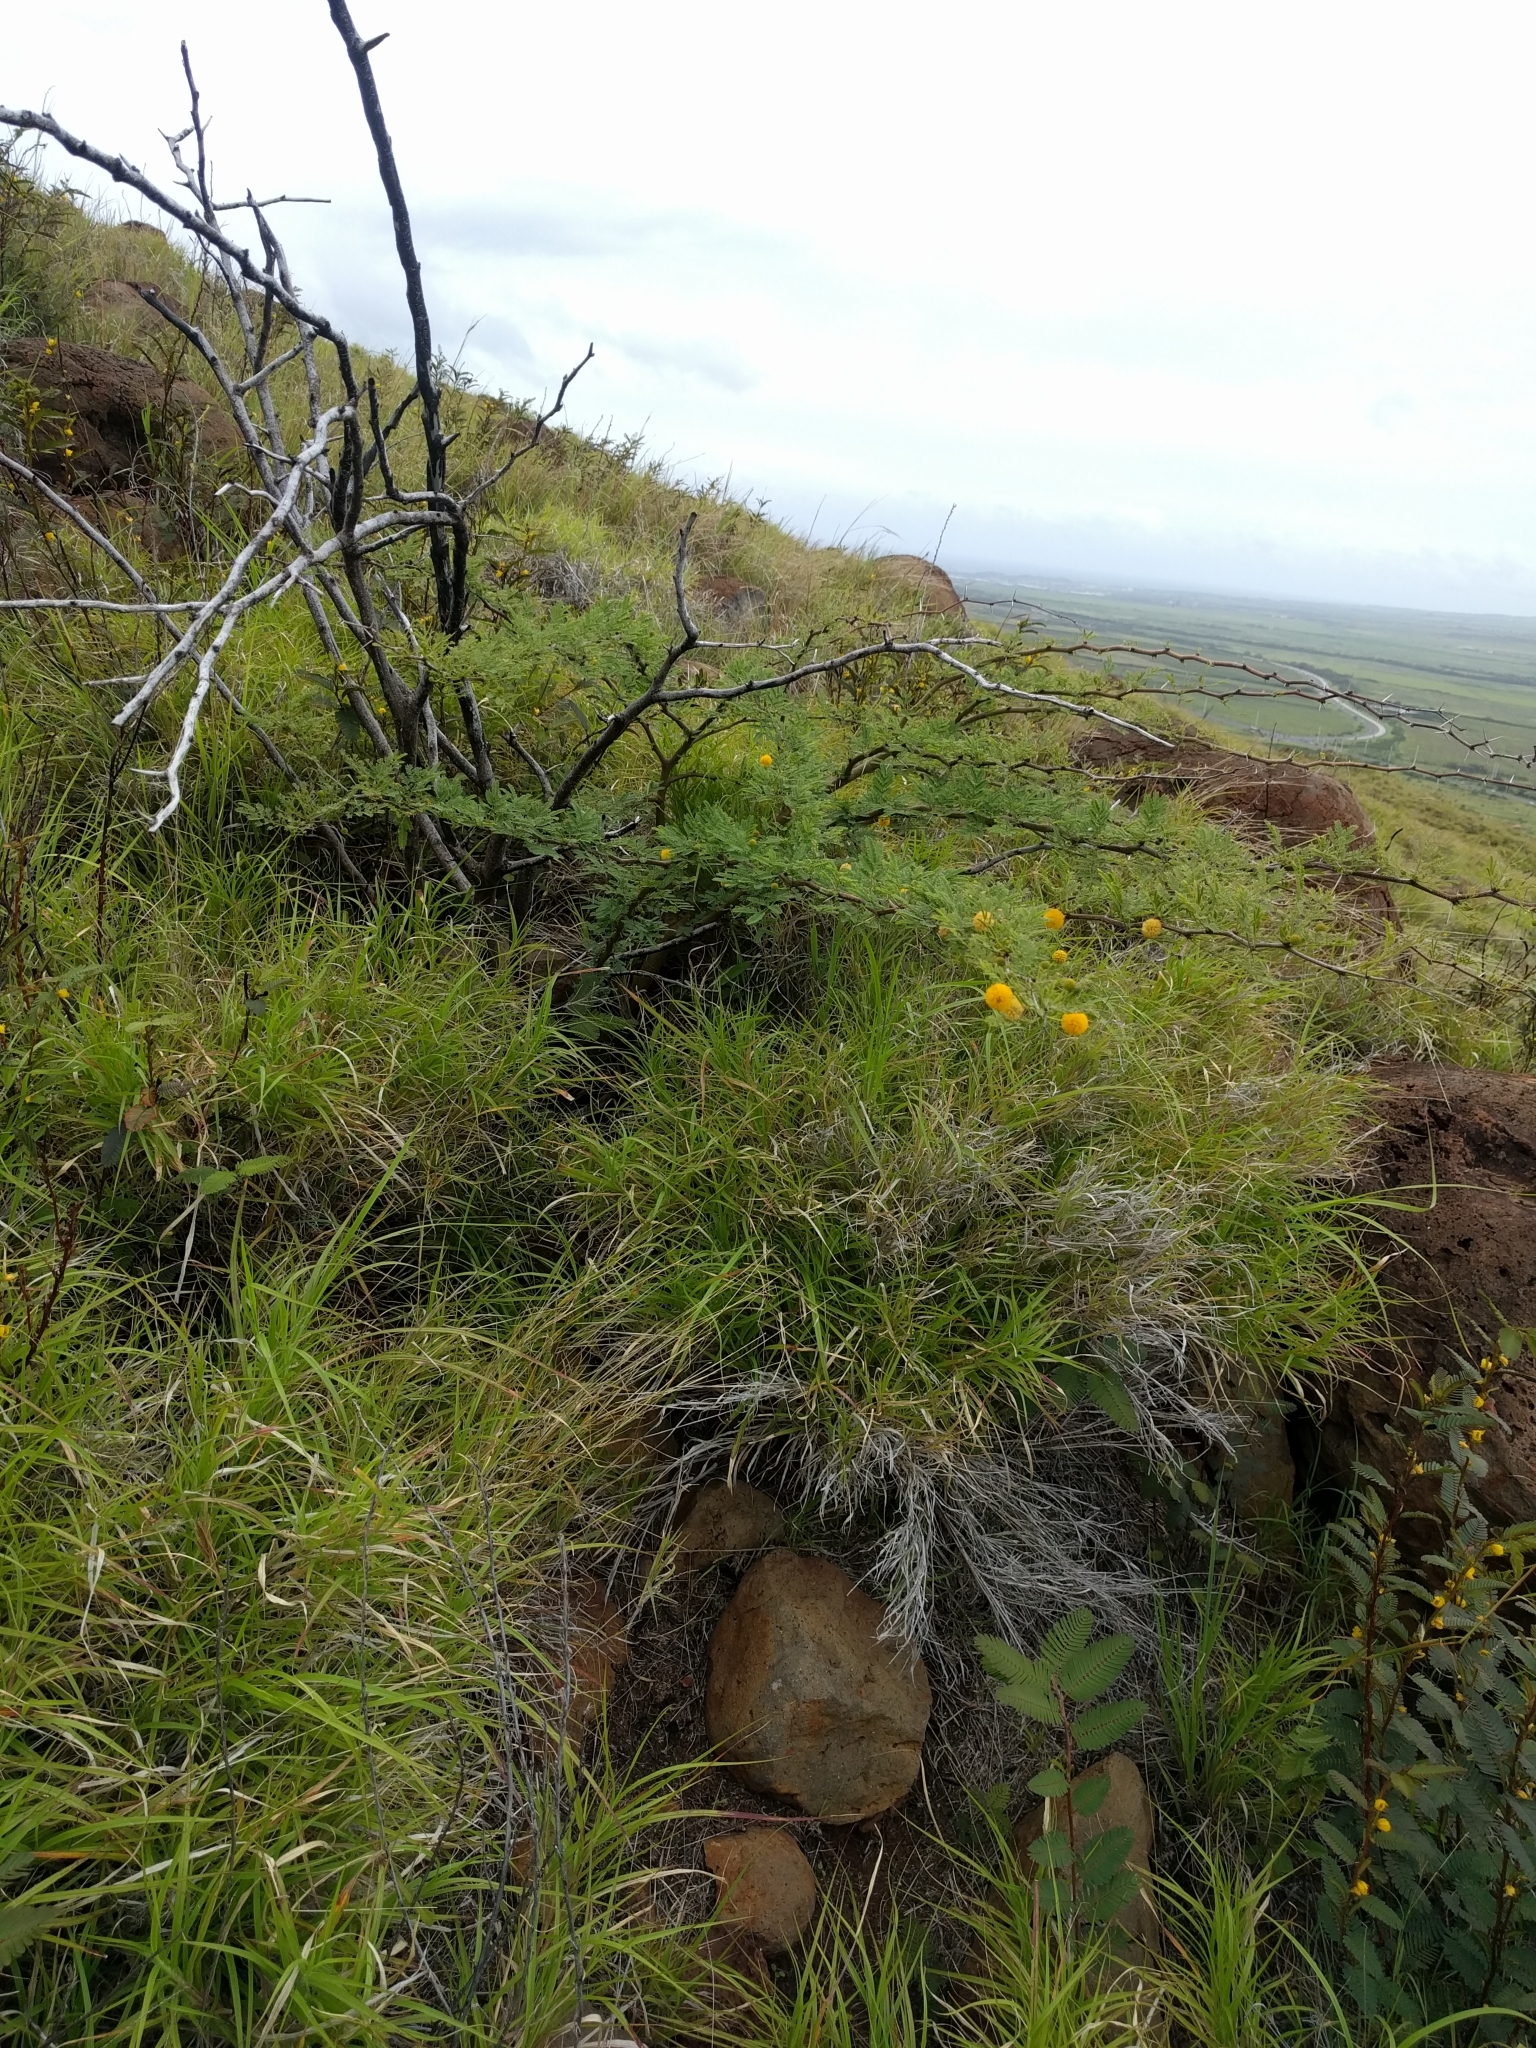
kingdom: Plantae
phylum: Tracheophyta
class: Magnoliopsida
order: Fabales
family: Fabaceae
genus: Vachellia
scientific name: Vachellia farnesiana
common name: Sweet acacia
